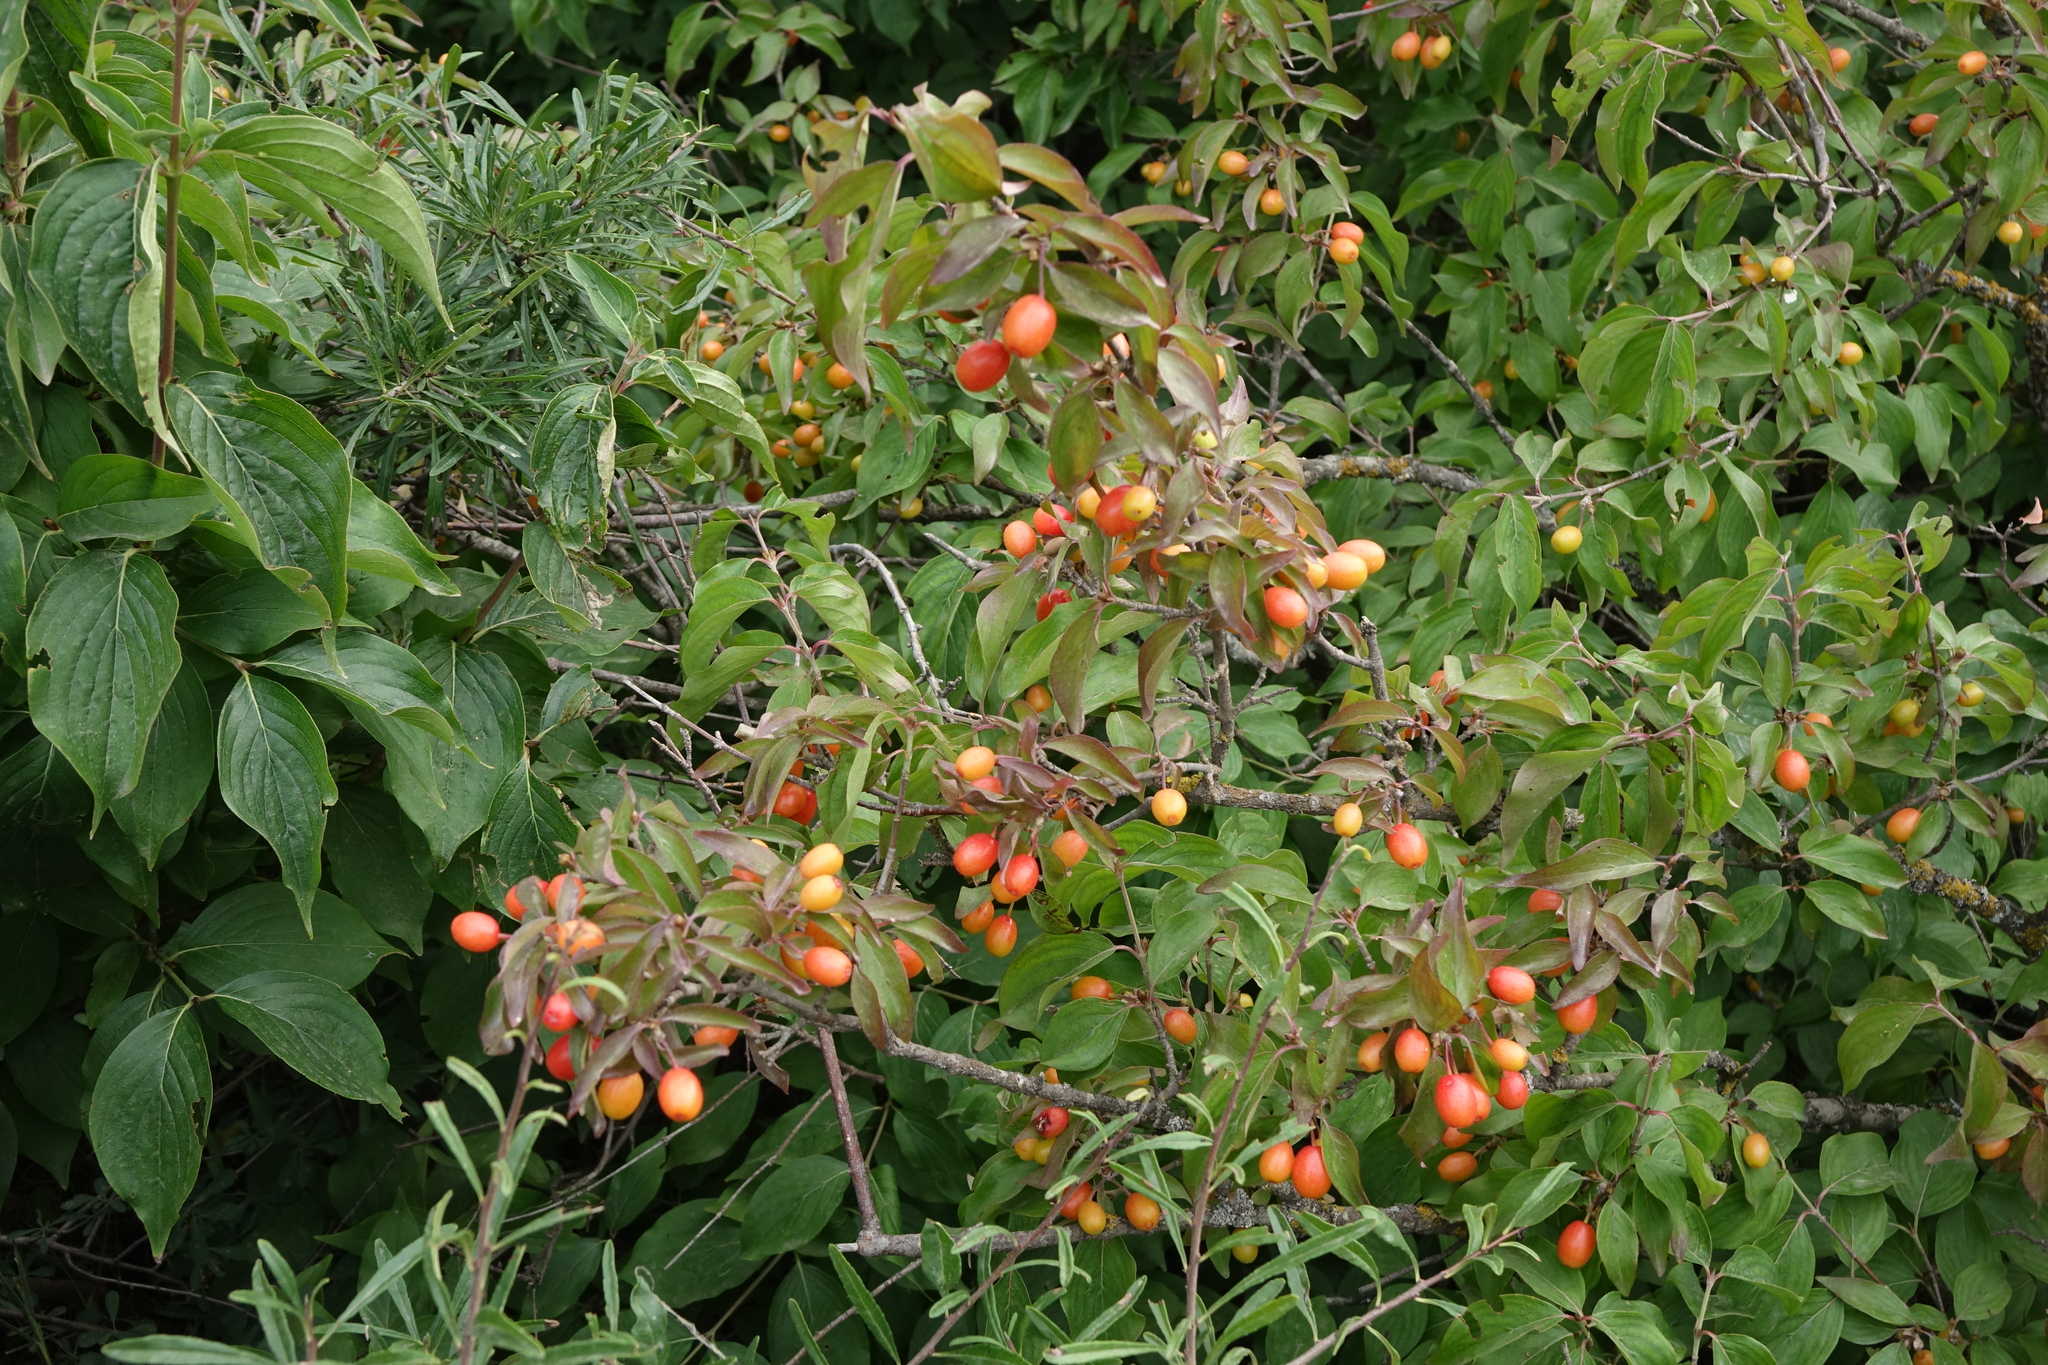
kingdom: Plantae
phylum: Tracheophyta
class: Magnoliopsida
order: Cornales
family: Cornaceae
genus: Cornus
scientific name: Cornus mas
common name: Cornelian-cherry
